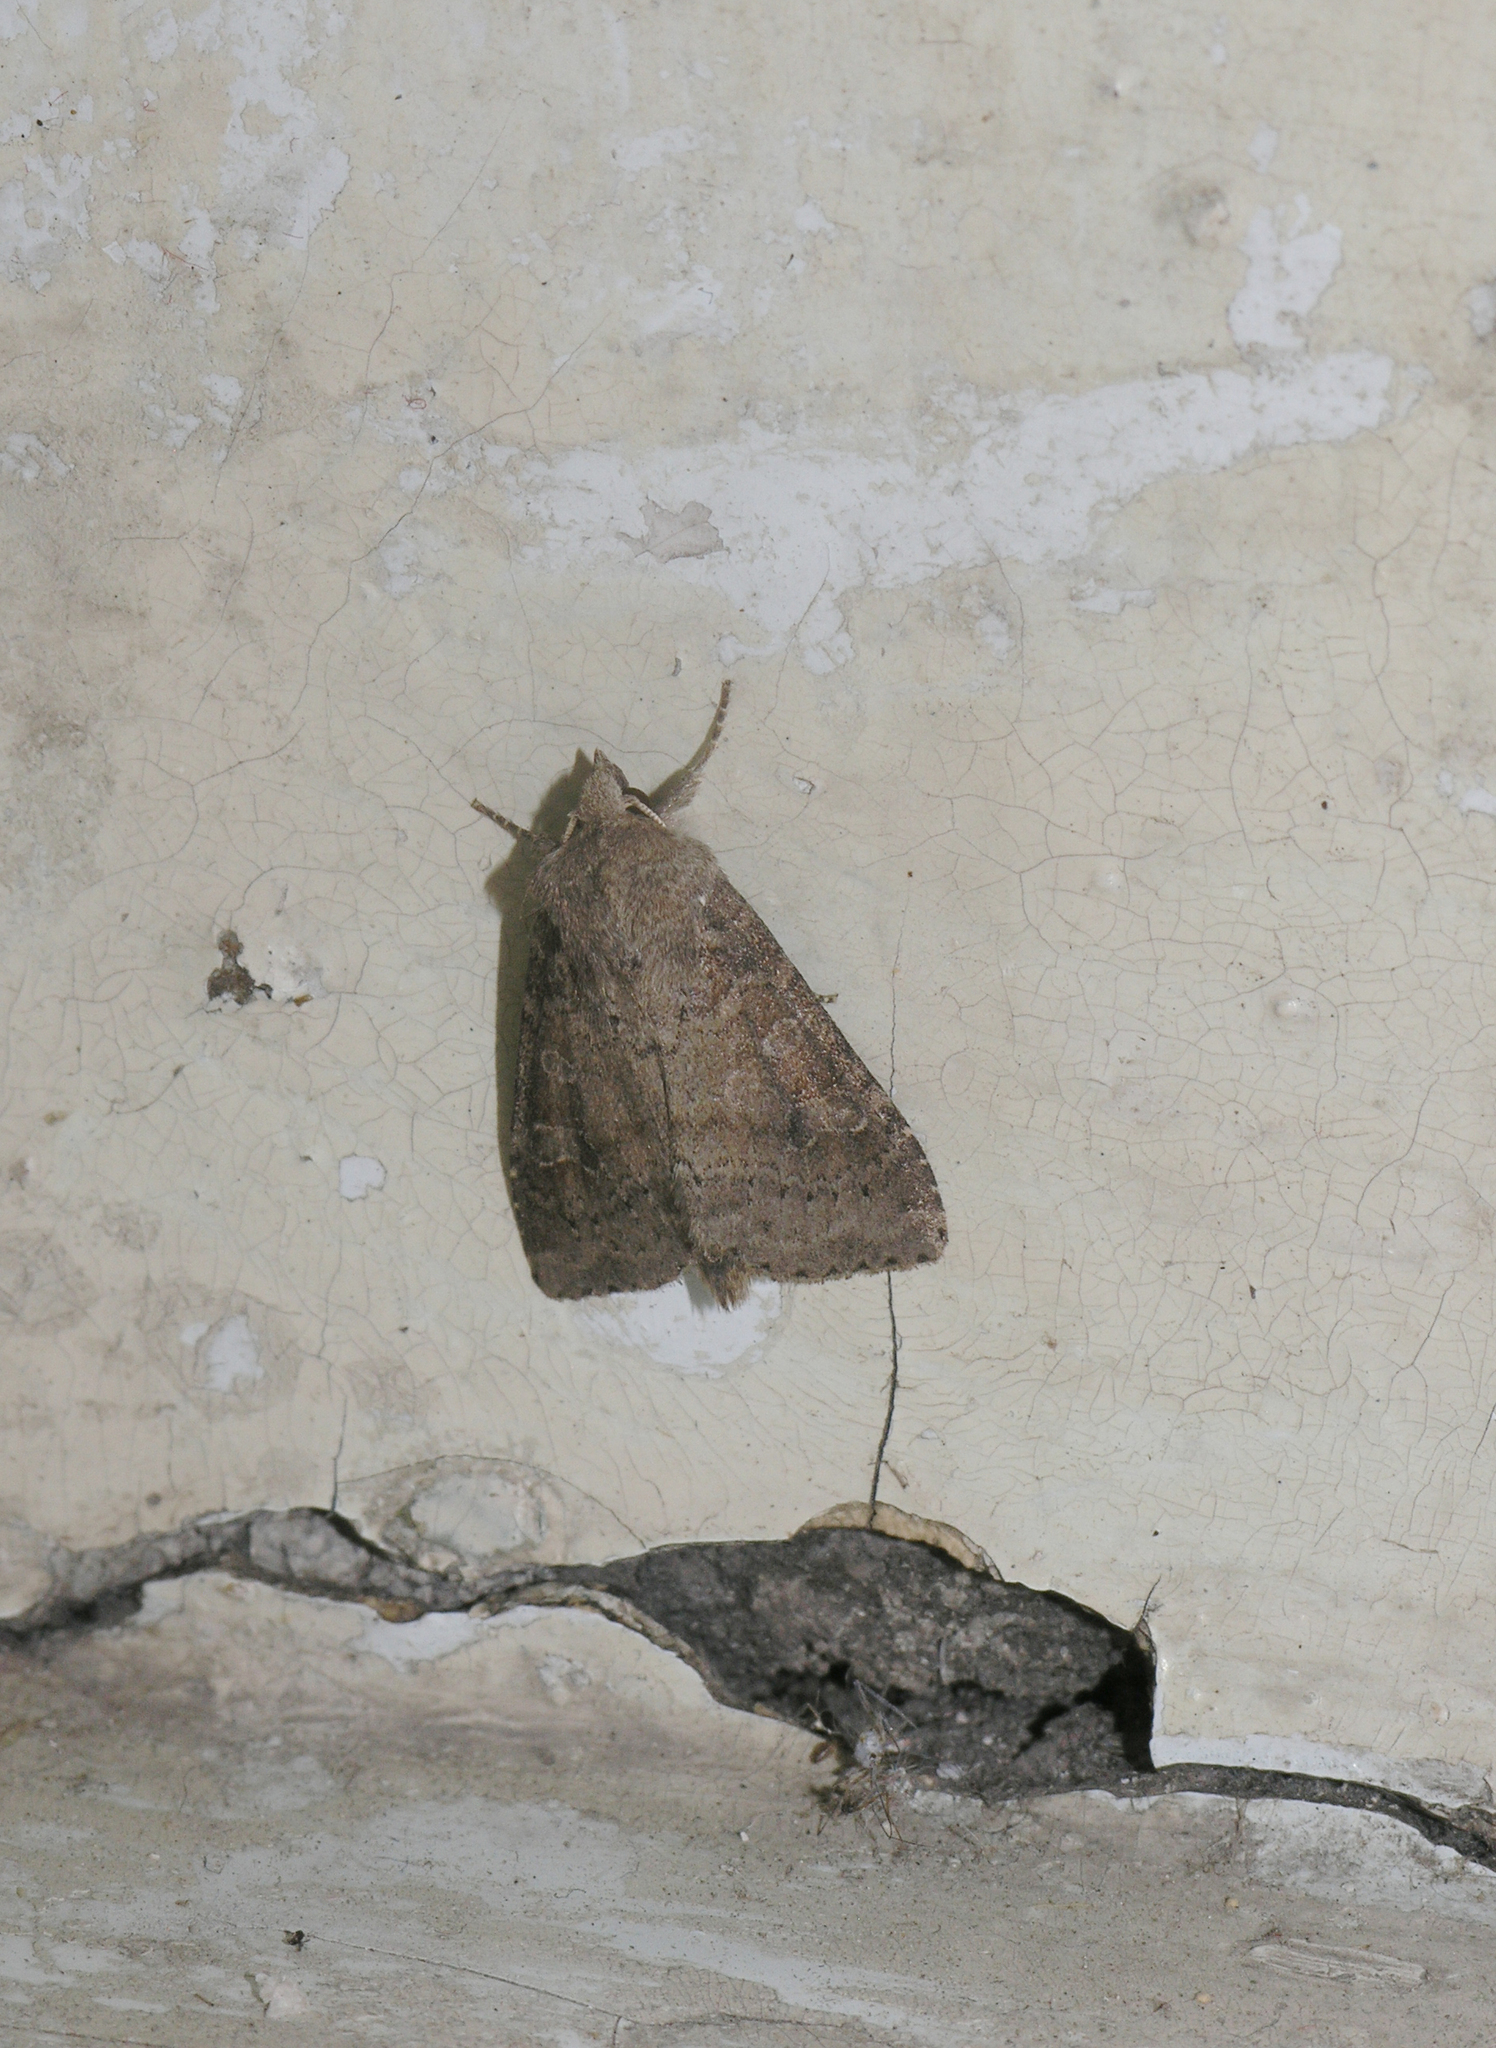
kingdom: Animalia
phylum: Arthropoda
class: Insecta
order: Lepidoptera
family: Noctuidae
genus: Parastichtis
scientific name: Parastichtis suspecta
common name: Suspected
